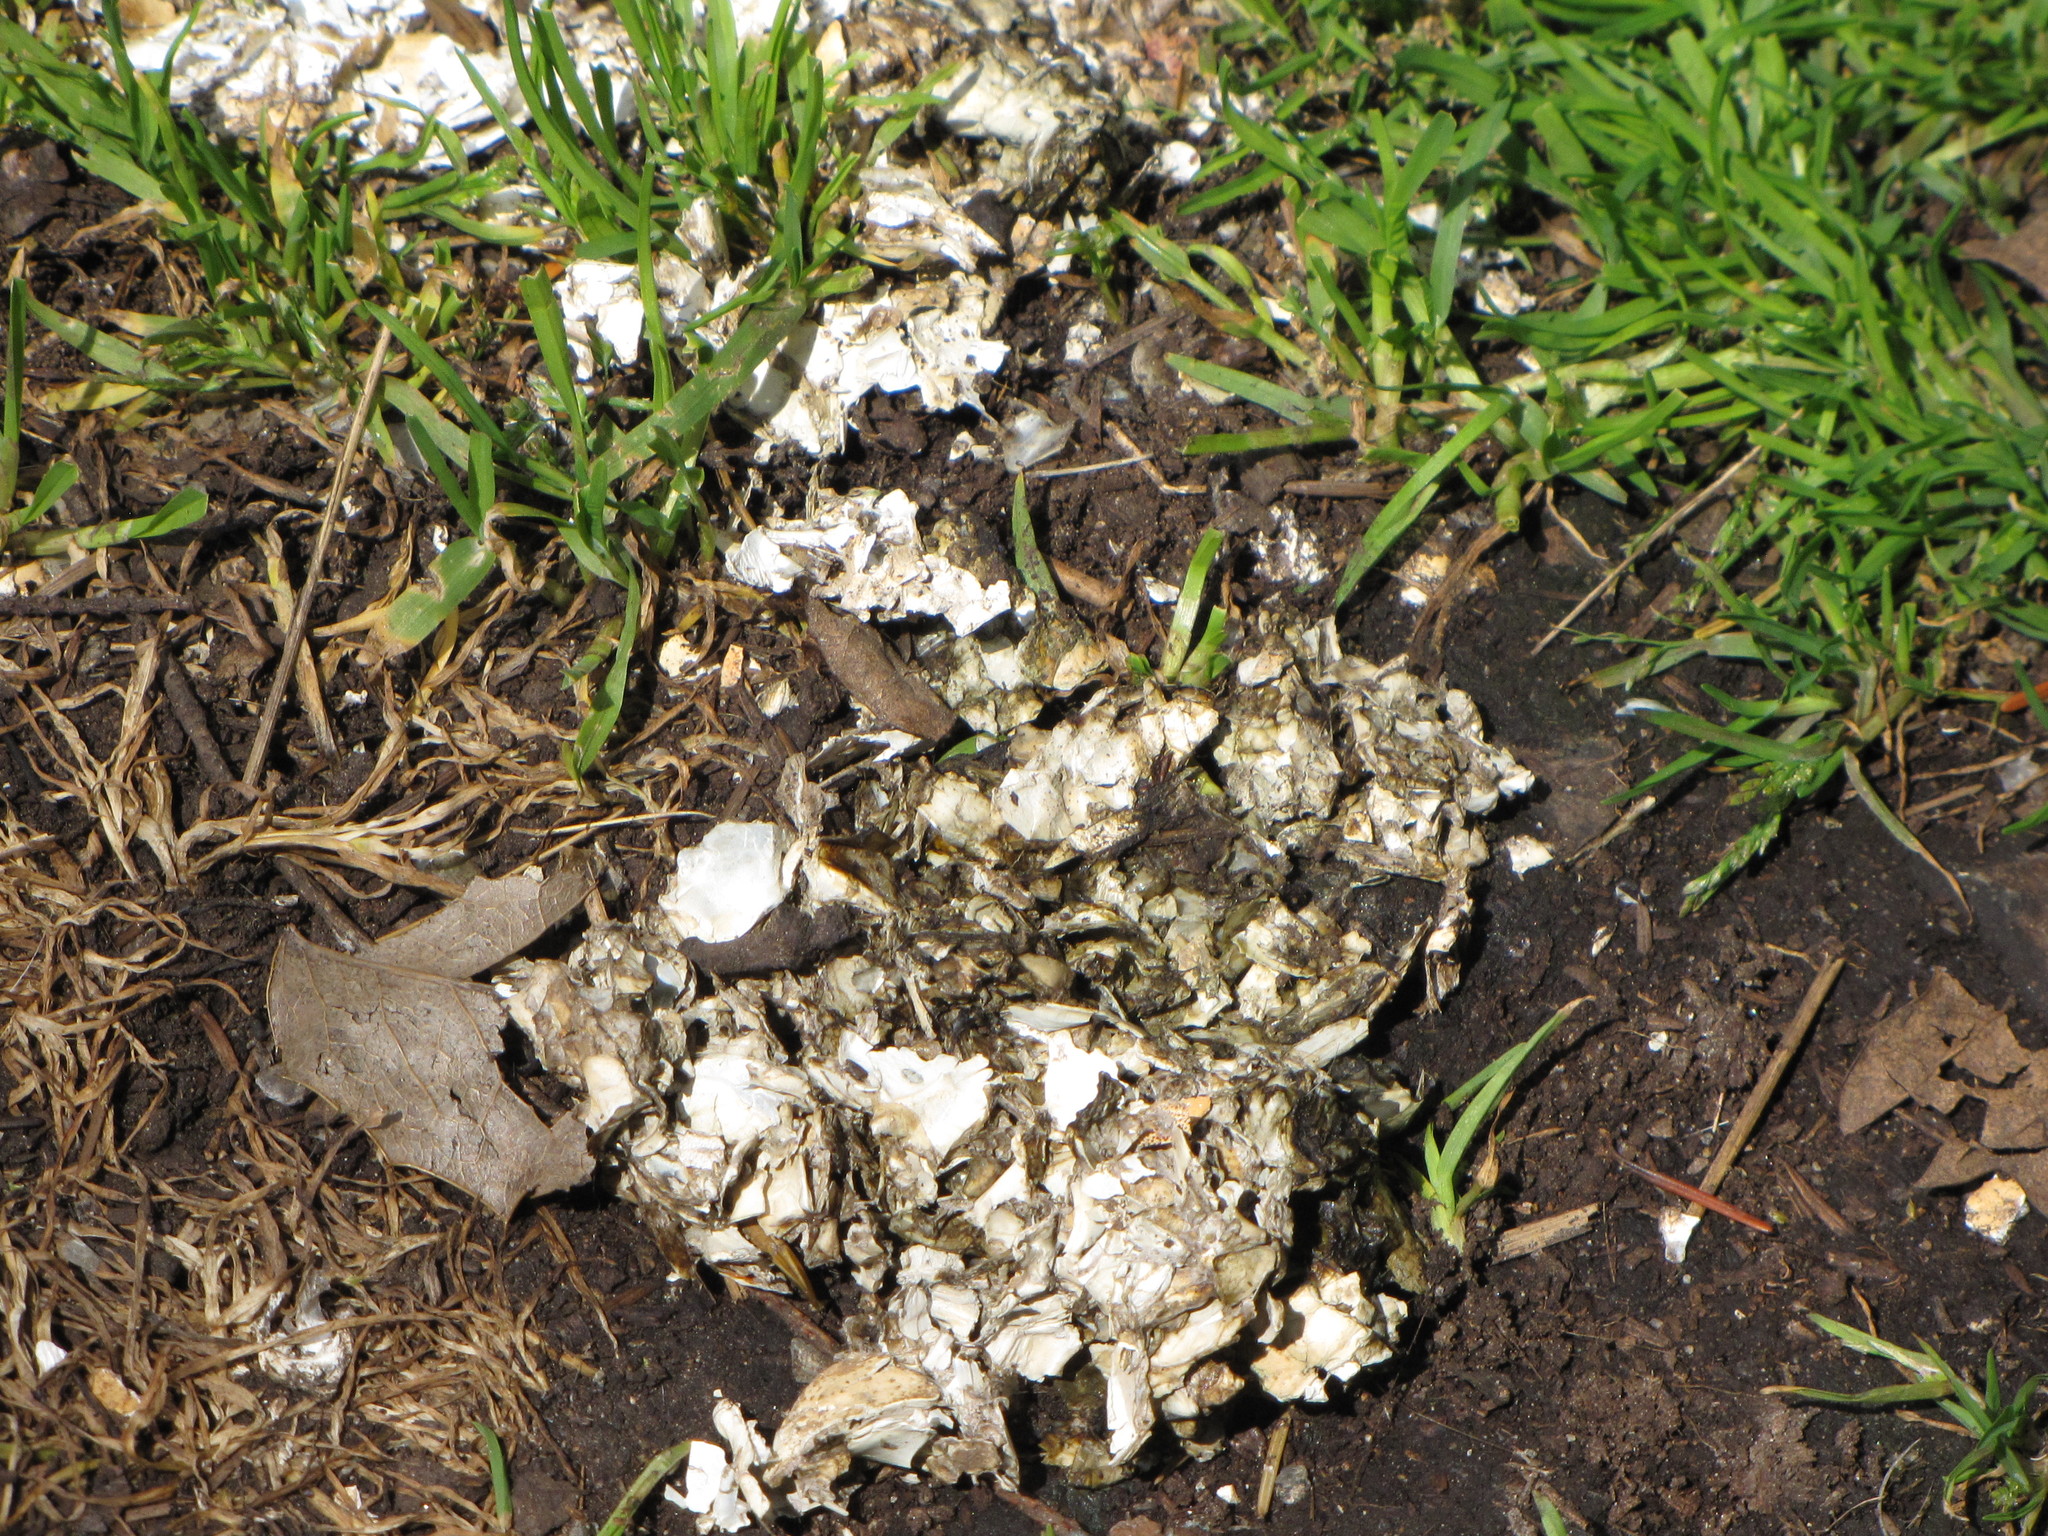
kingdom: Animalia
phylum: Chordata
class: Mammalia
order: Carnivora
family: Mustelidae
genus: Lontra
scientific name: Lontra canadensis
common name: North american river otter
